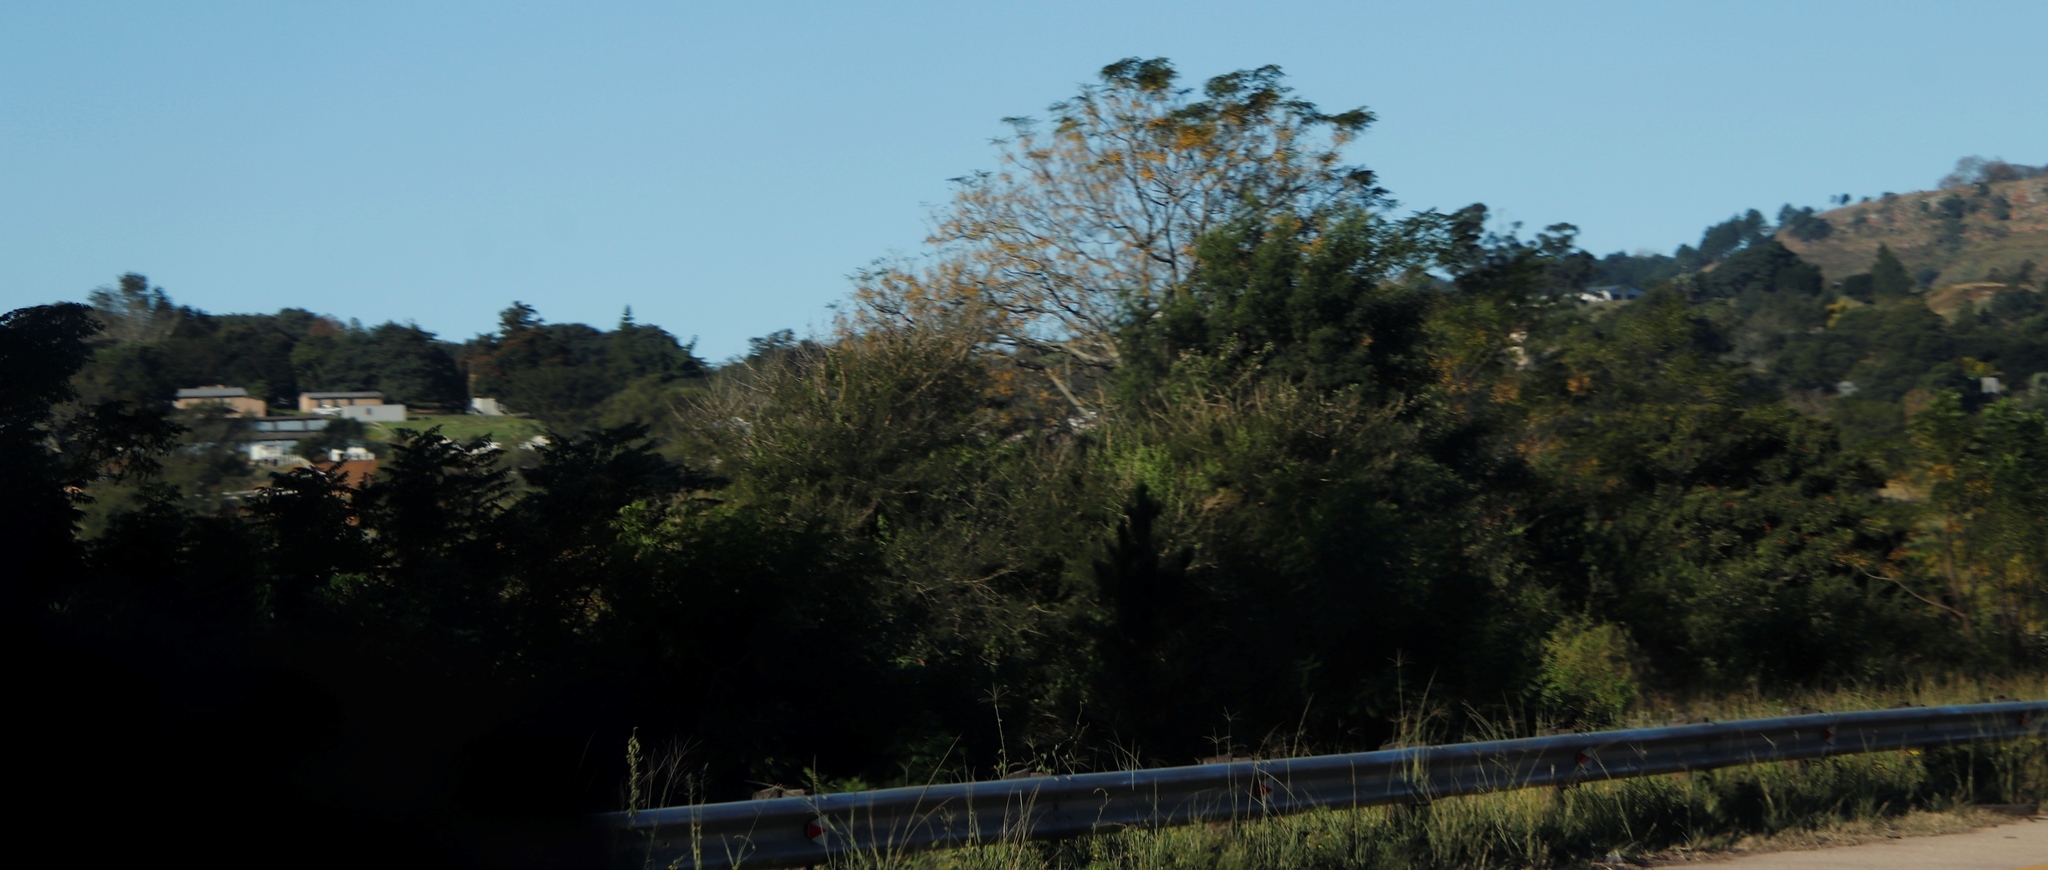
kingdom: Plantae
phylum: Tracheophyta
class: Magnoliopsida
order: Sapindales
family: Meliaceae
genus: Melia
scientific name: Melia azedarach
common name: Chinaberrytree
